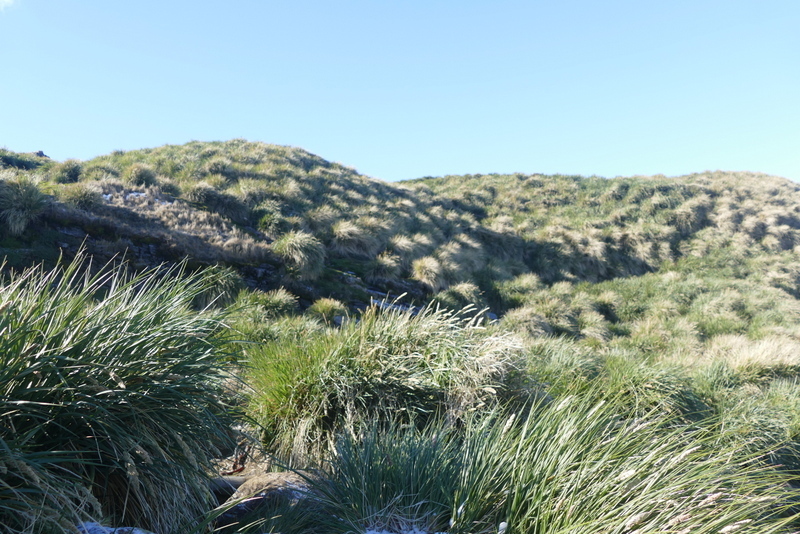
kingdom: Plantae
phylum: Tracheophyta
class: Liliopsida
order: Poales
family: Poaceae
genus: Poa
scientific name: Poa flabellata
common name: Tussac-grass
